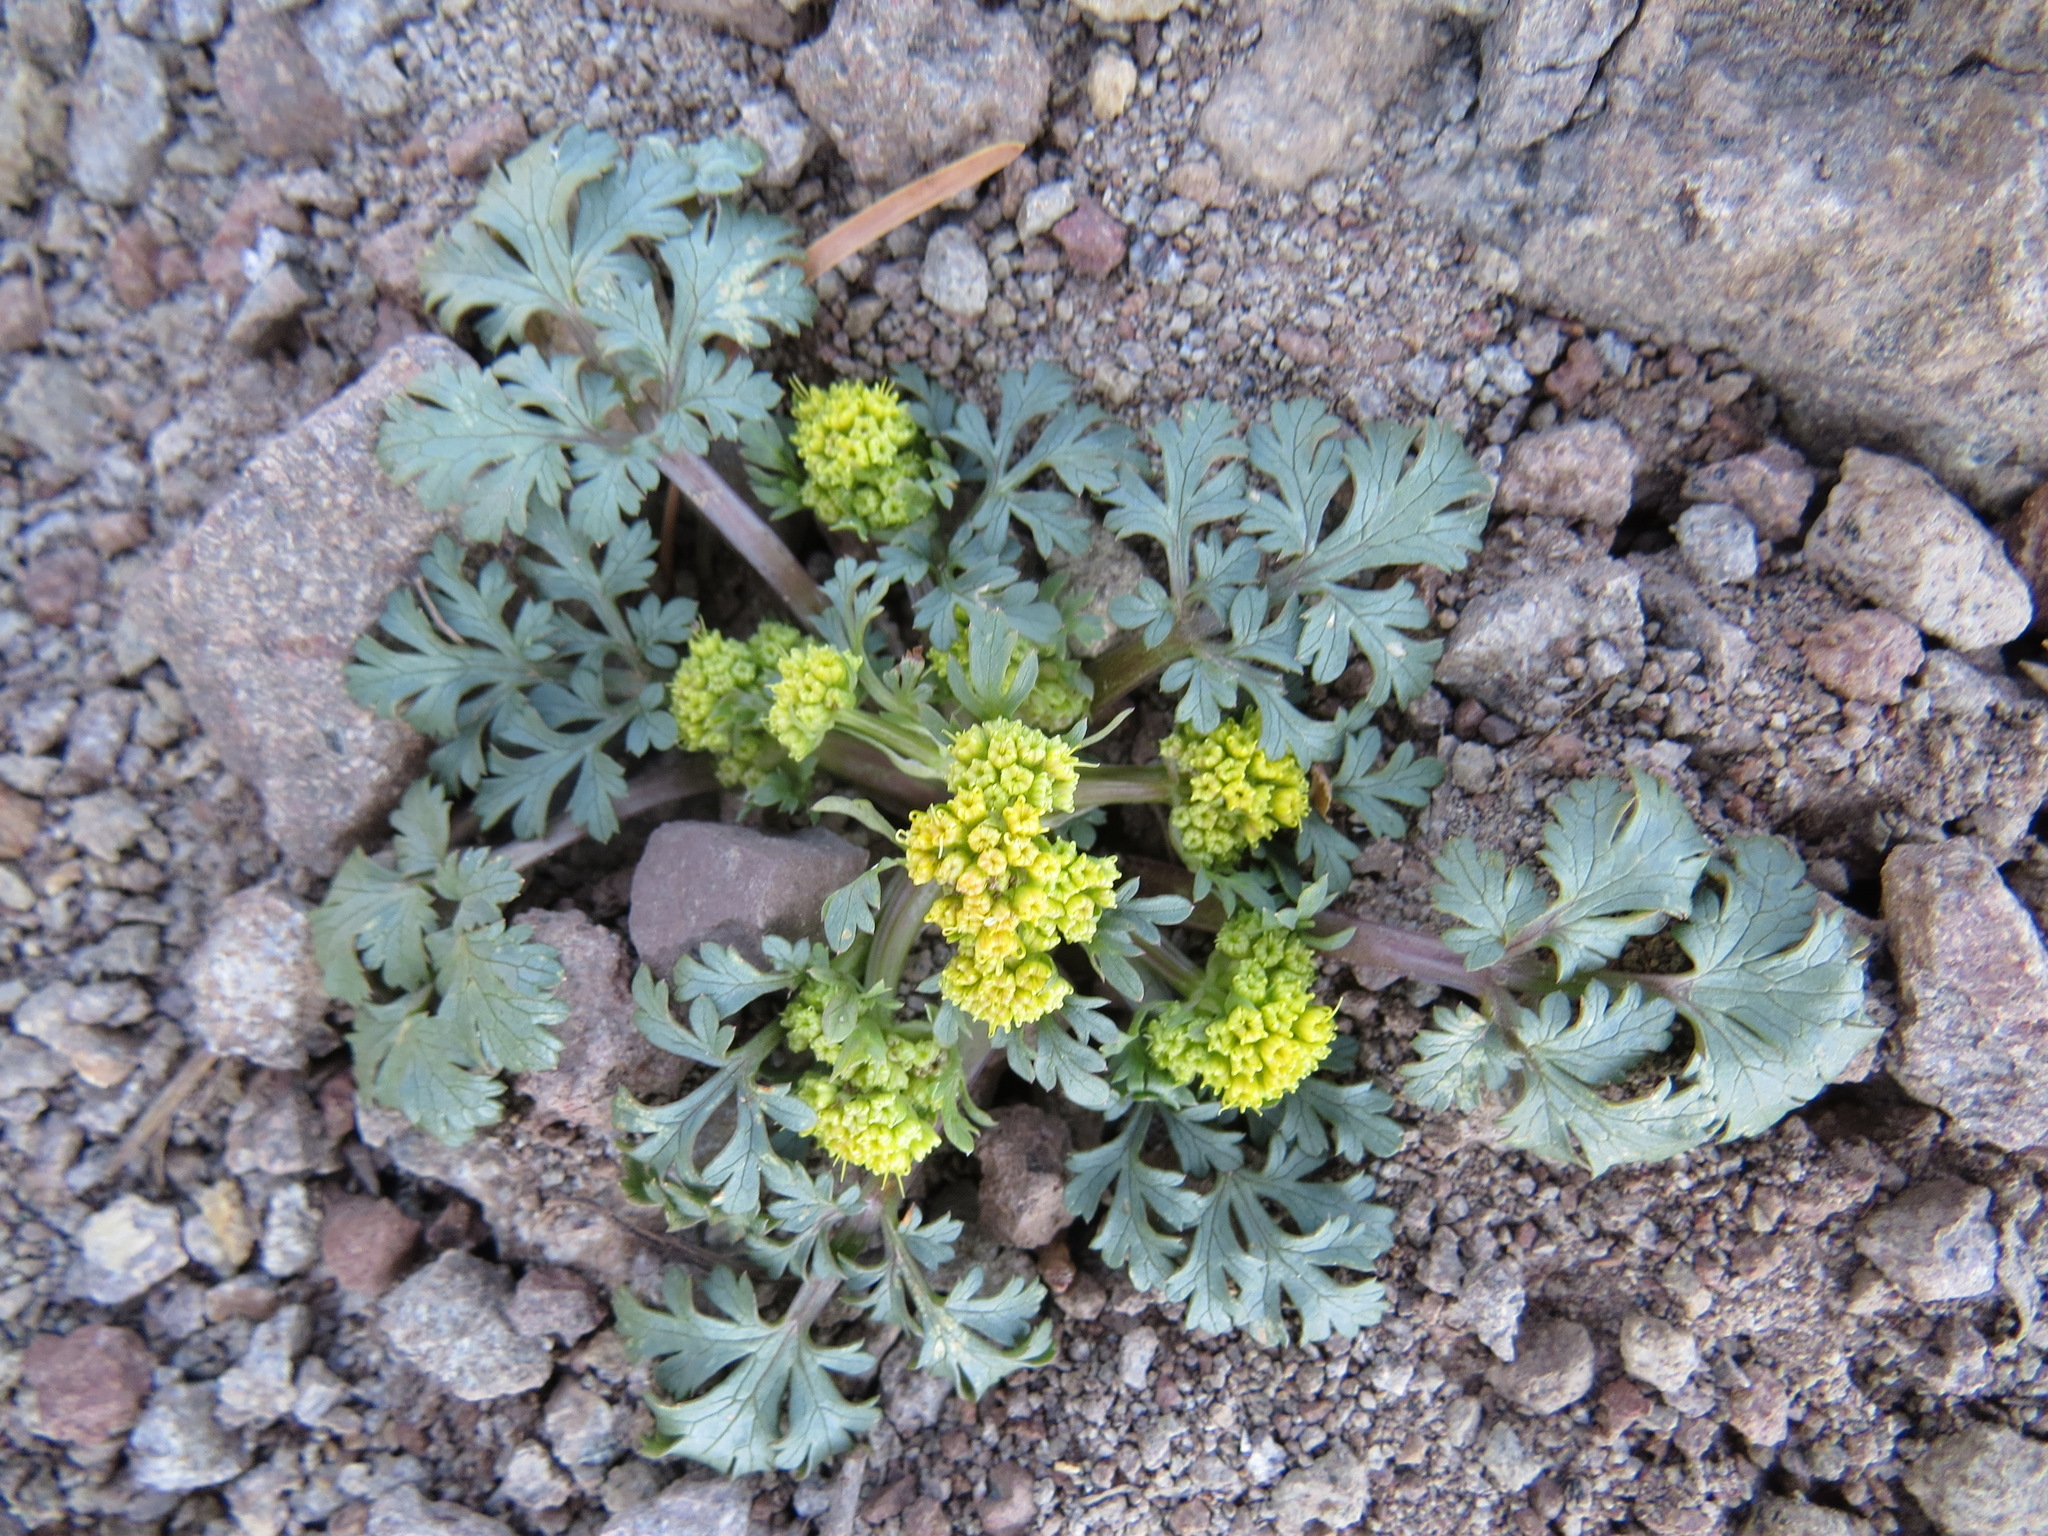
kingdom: Plantae
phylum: Tracheophyta
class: Magnoliopsida
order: Apiales
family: Apiaceae
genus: Sanicula
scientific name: Sanicula graveolens
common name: Sierra sanicle
